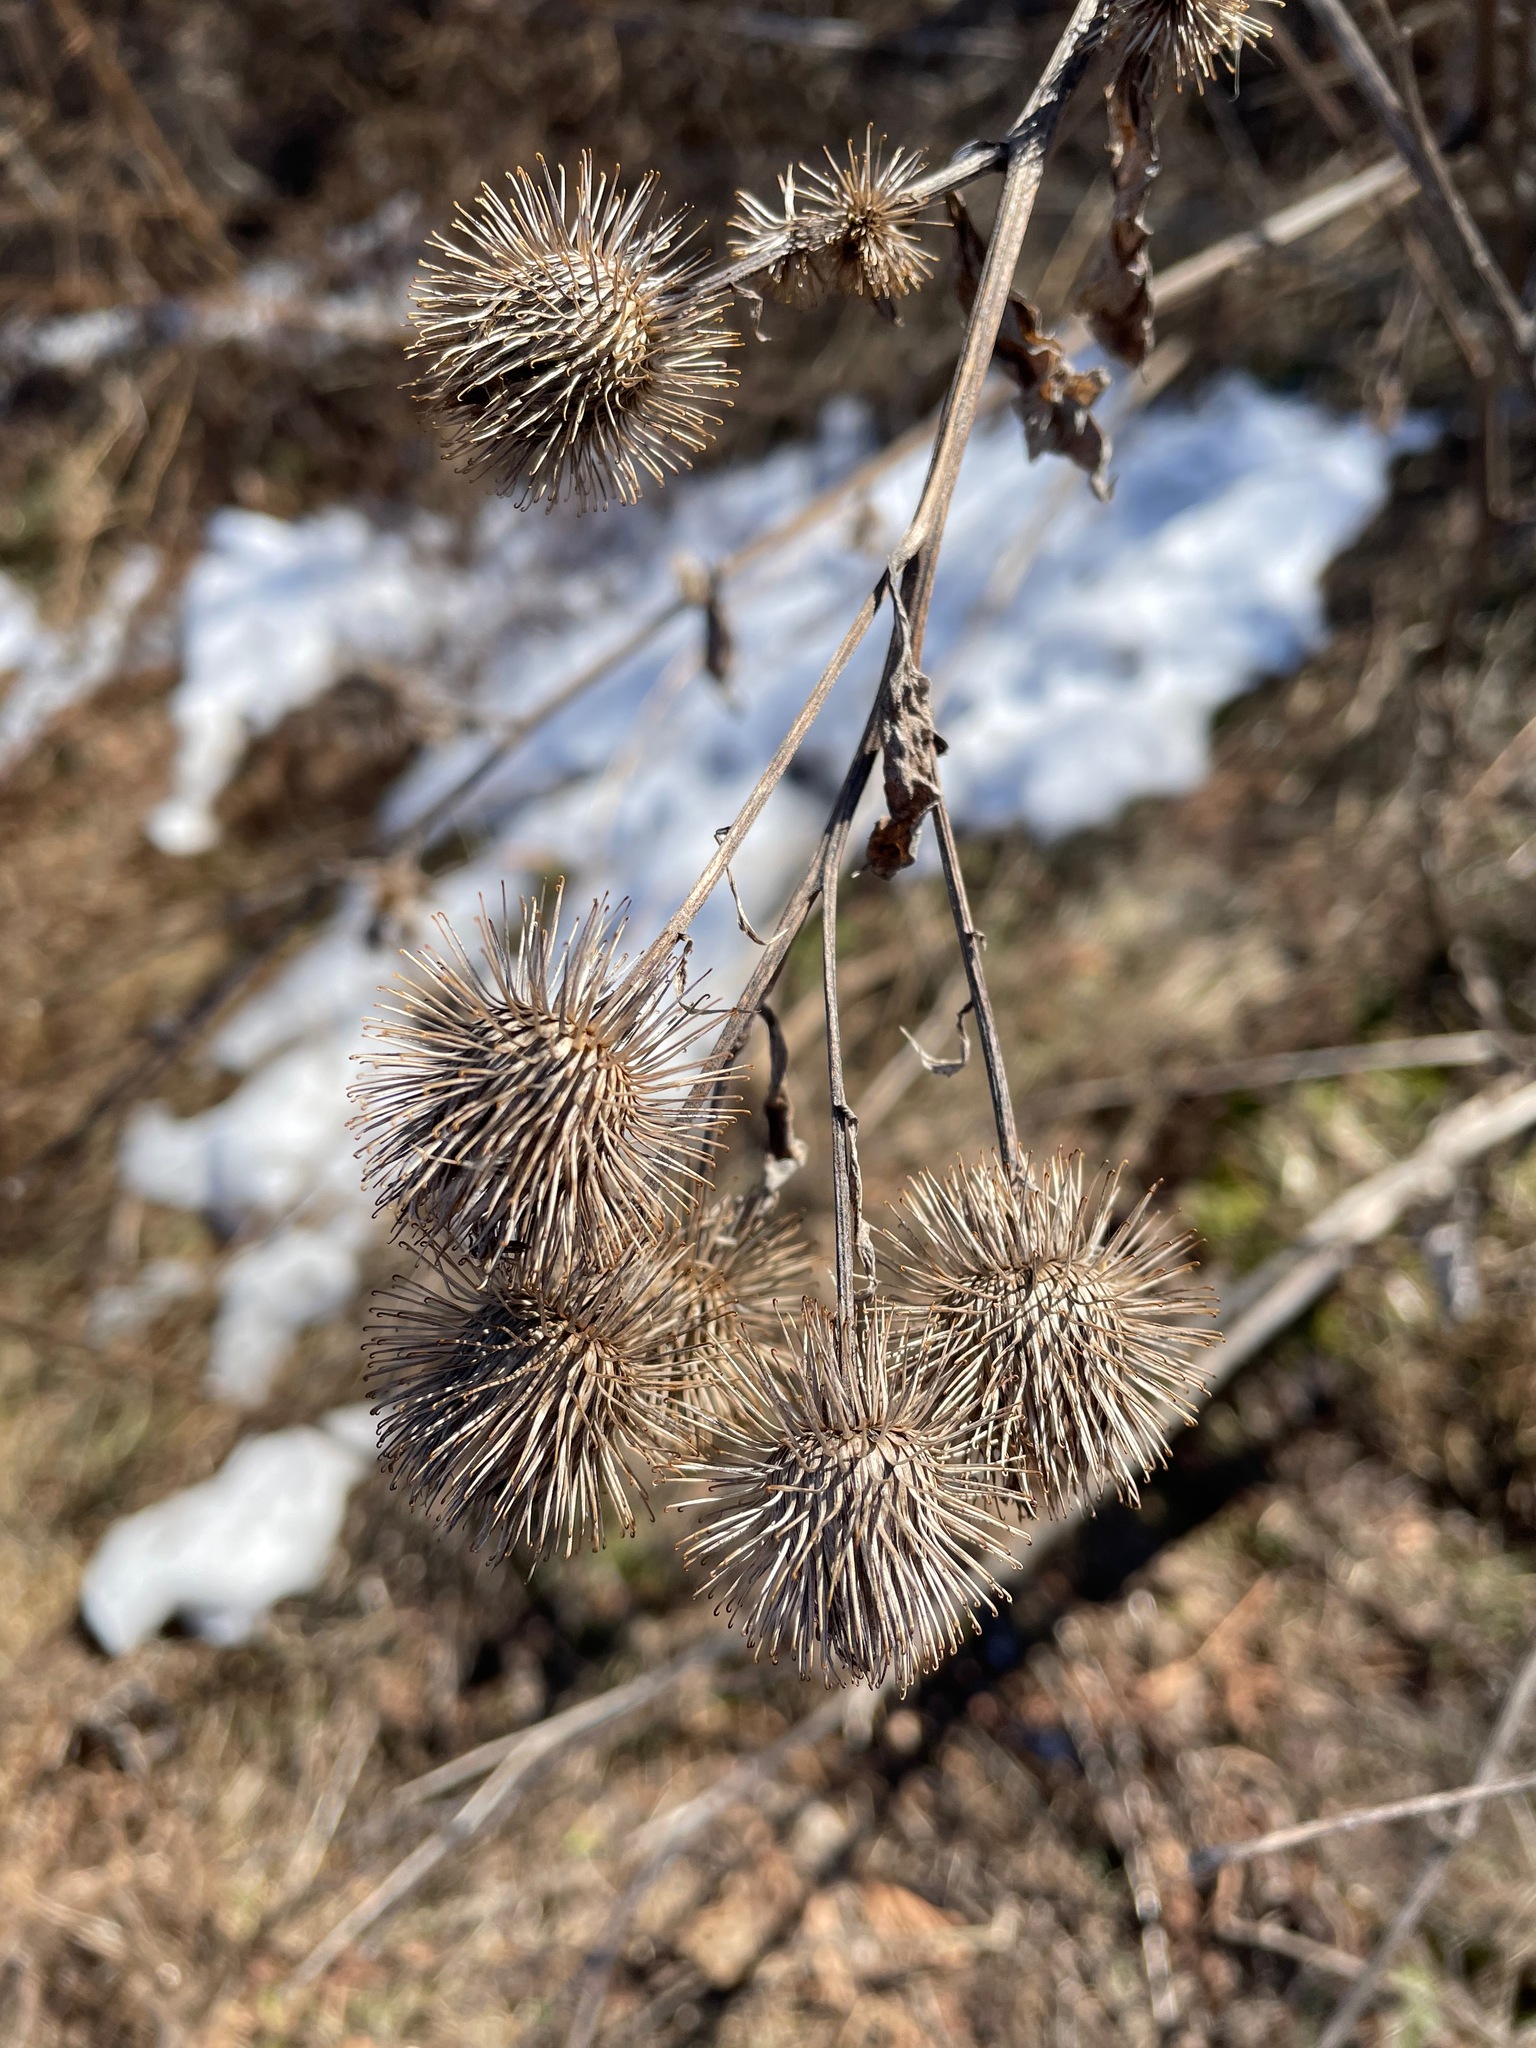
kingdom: Plantae
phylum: Tracheophyta
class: Magnoliopsida
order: Asterales
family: Asteraceae
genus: Arctium
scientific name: Arctium lappa
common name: Greater burdock
